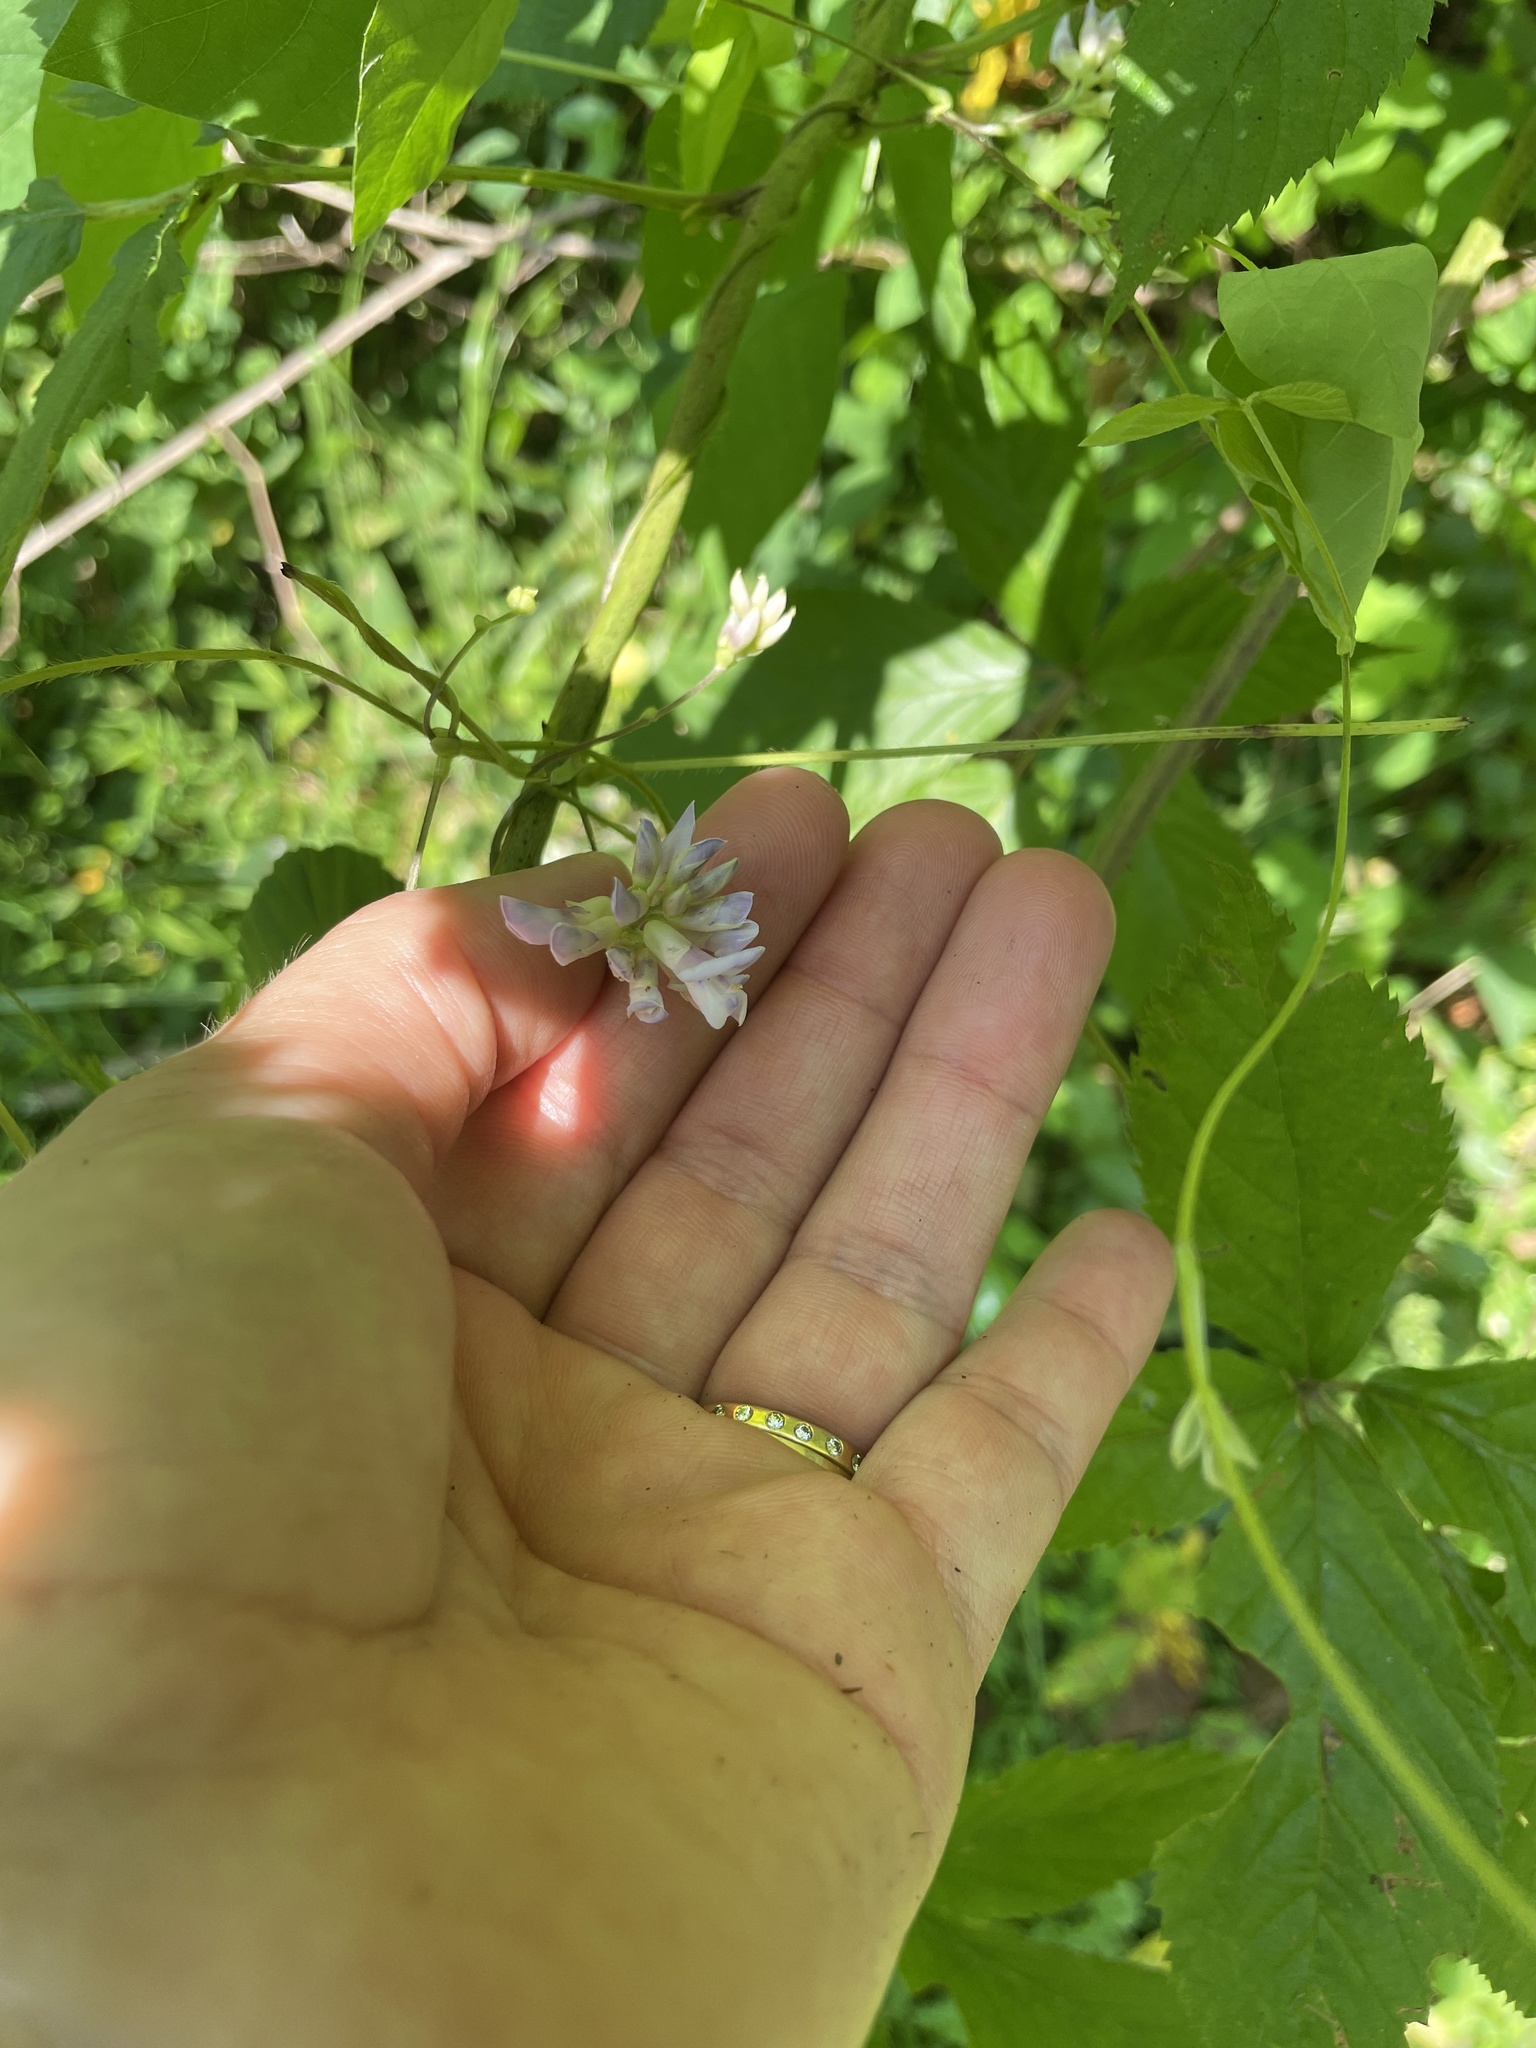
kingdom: Plantae
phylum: Tracheophyta
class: Magnoliopsida
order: Fabales
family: Fabaceae
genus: Amphicarpaea
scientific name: Amphicarpaea bracteata
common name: American hog peanut
